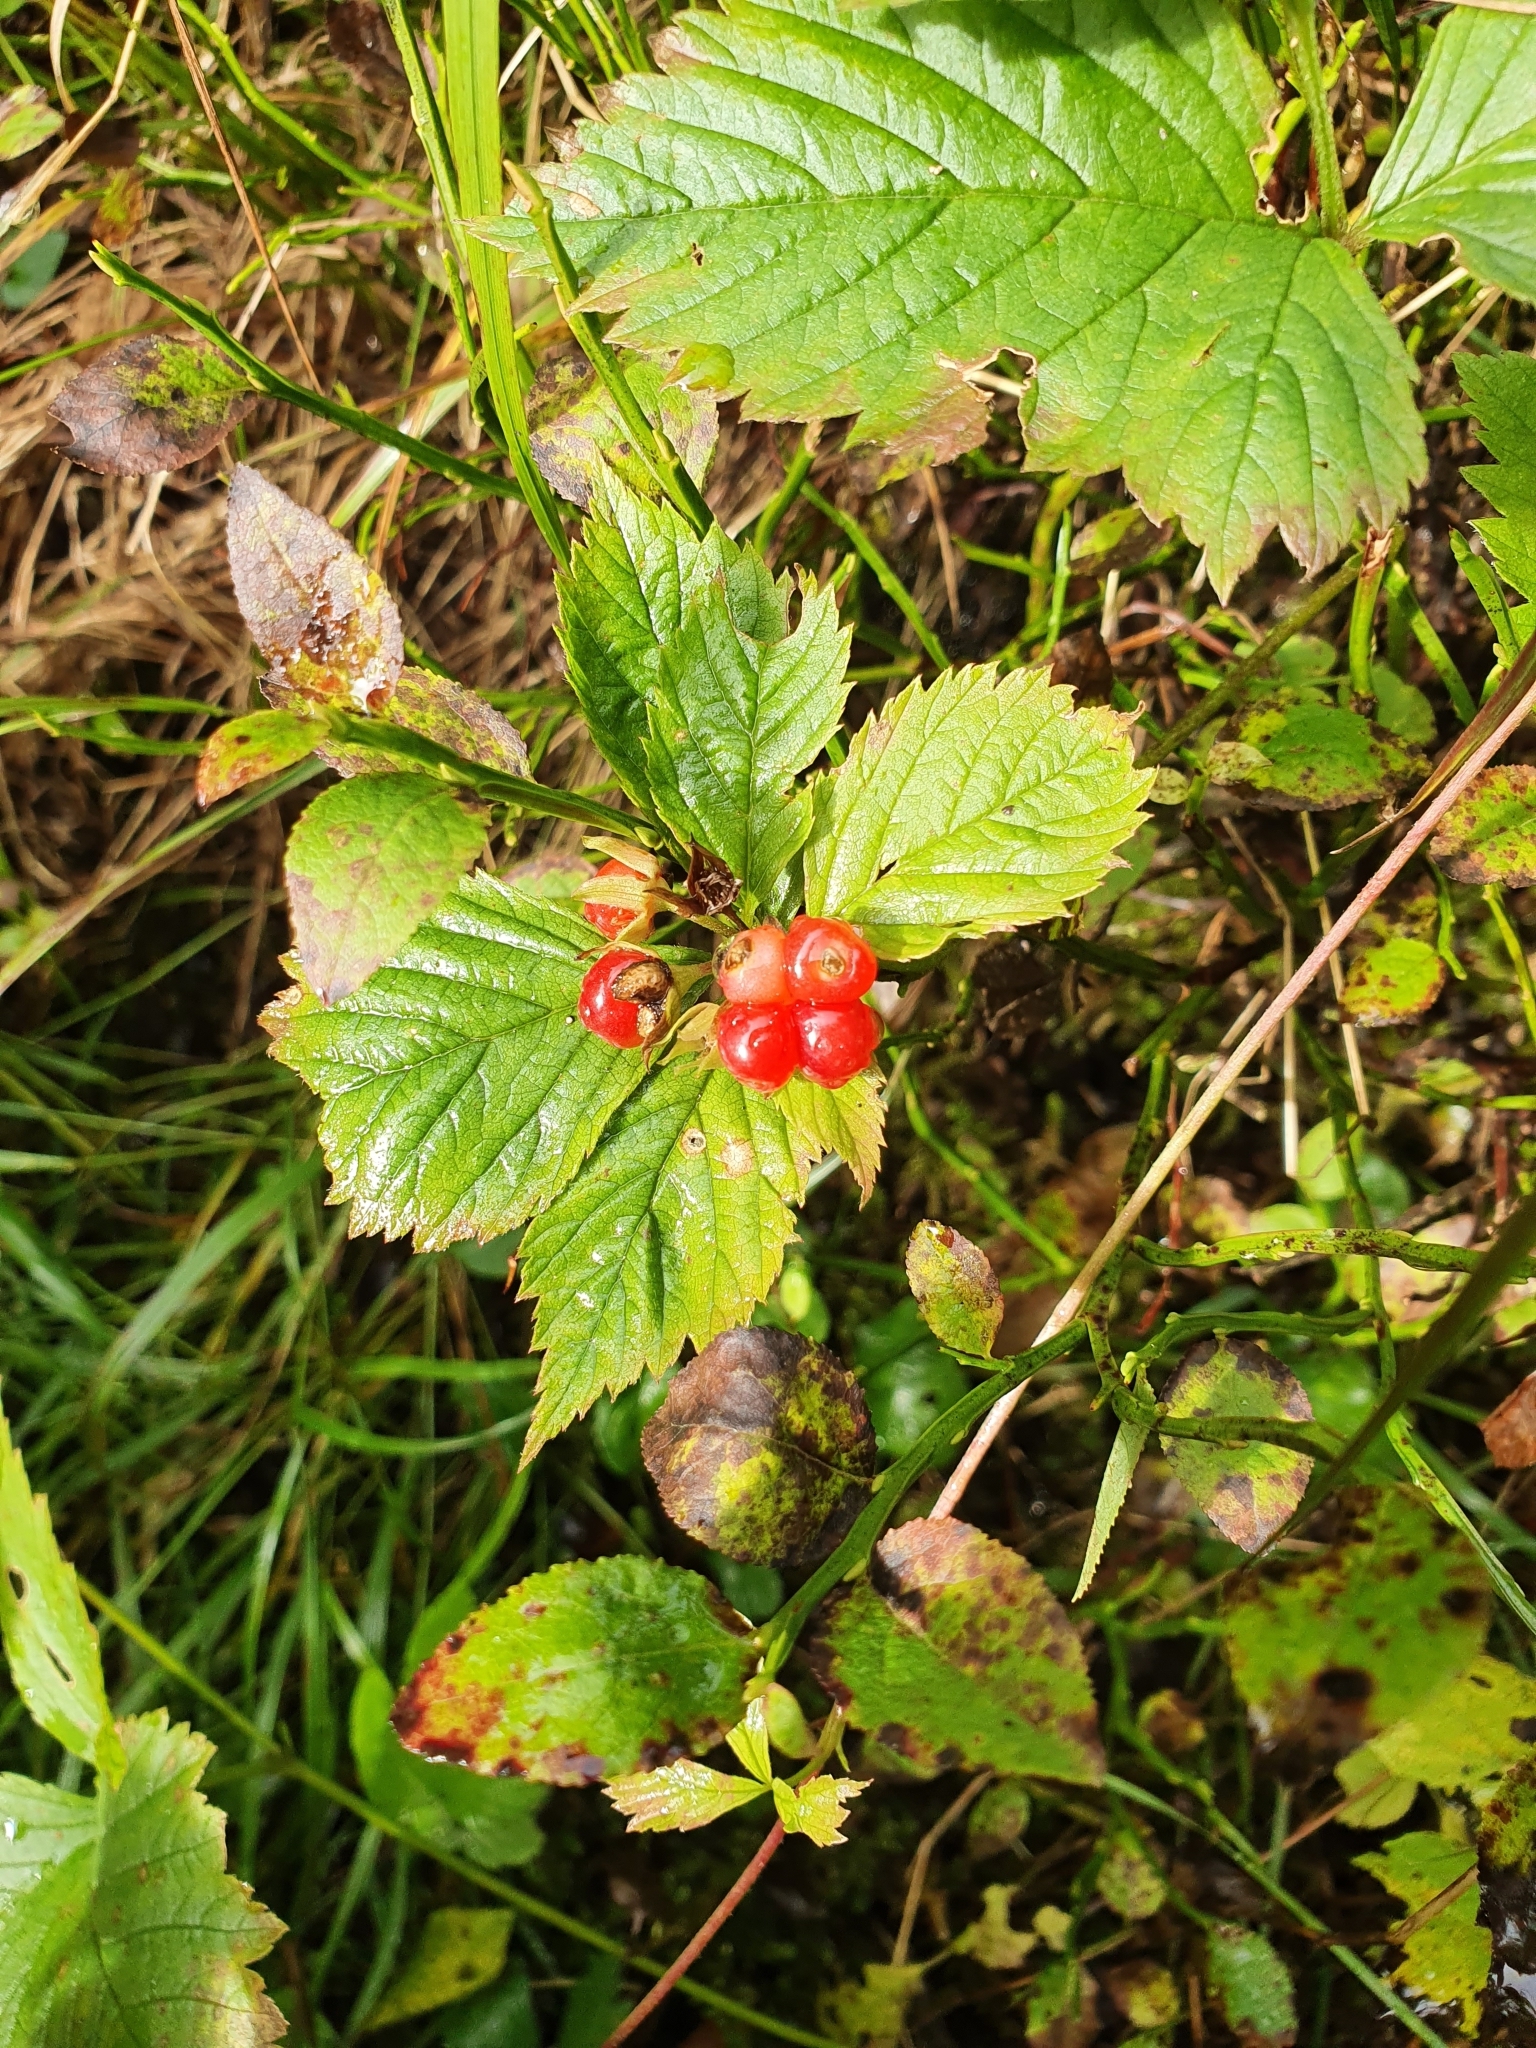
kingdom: Plantae
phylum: Tracheophyta
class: Magnoliopsida
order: Rosales
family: Rosaceae
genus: Rubus
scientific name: Rubus saxatilis
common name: Stone bramble
